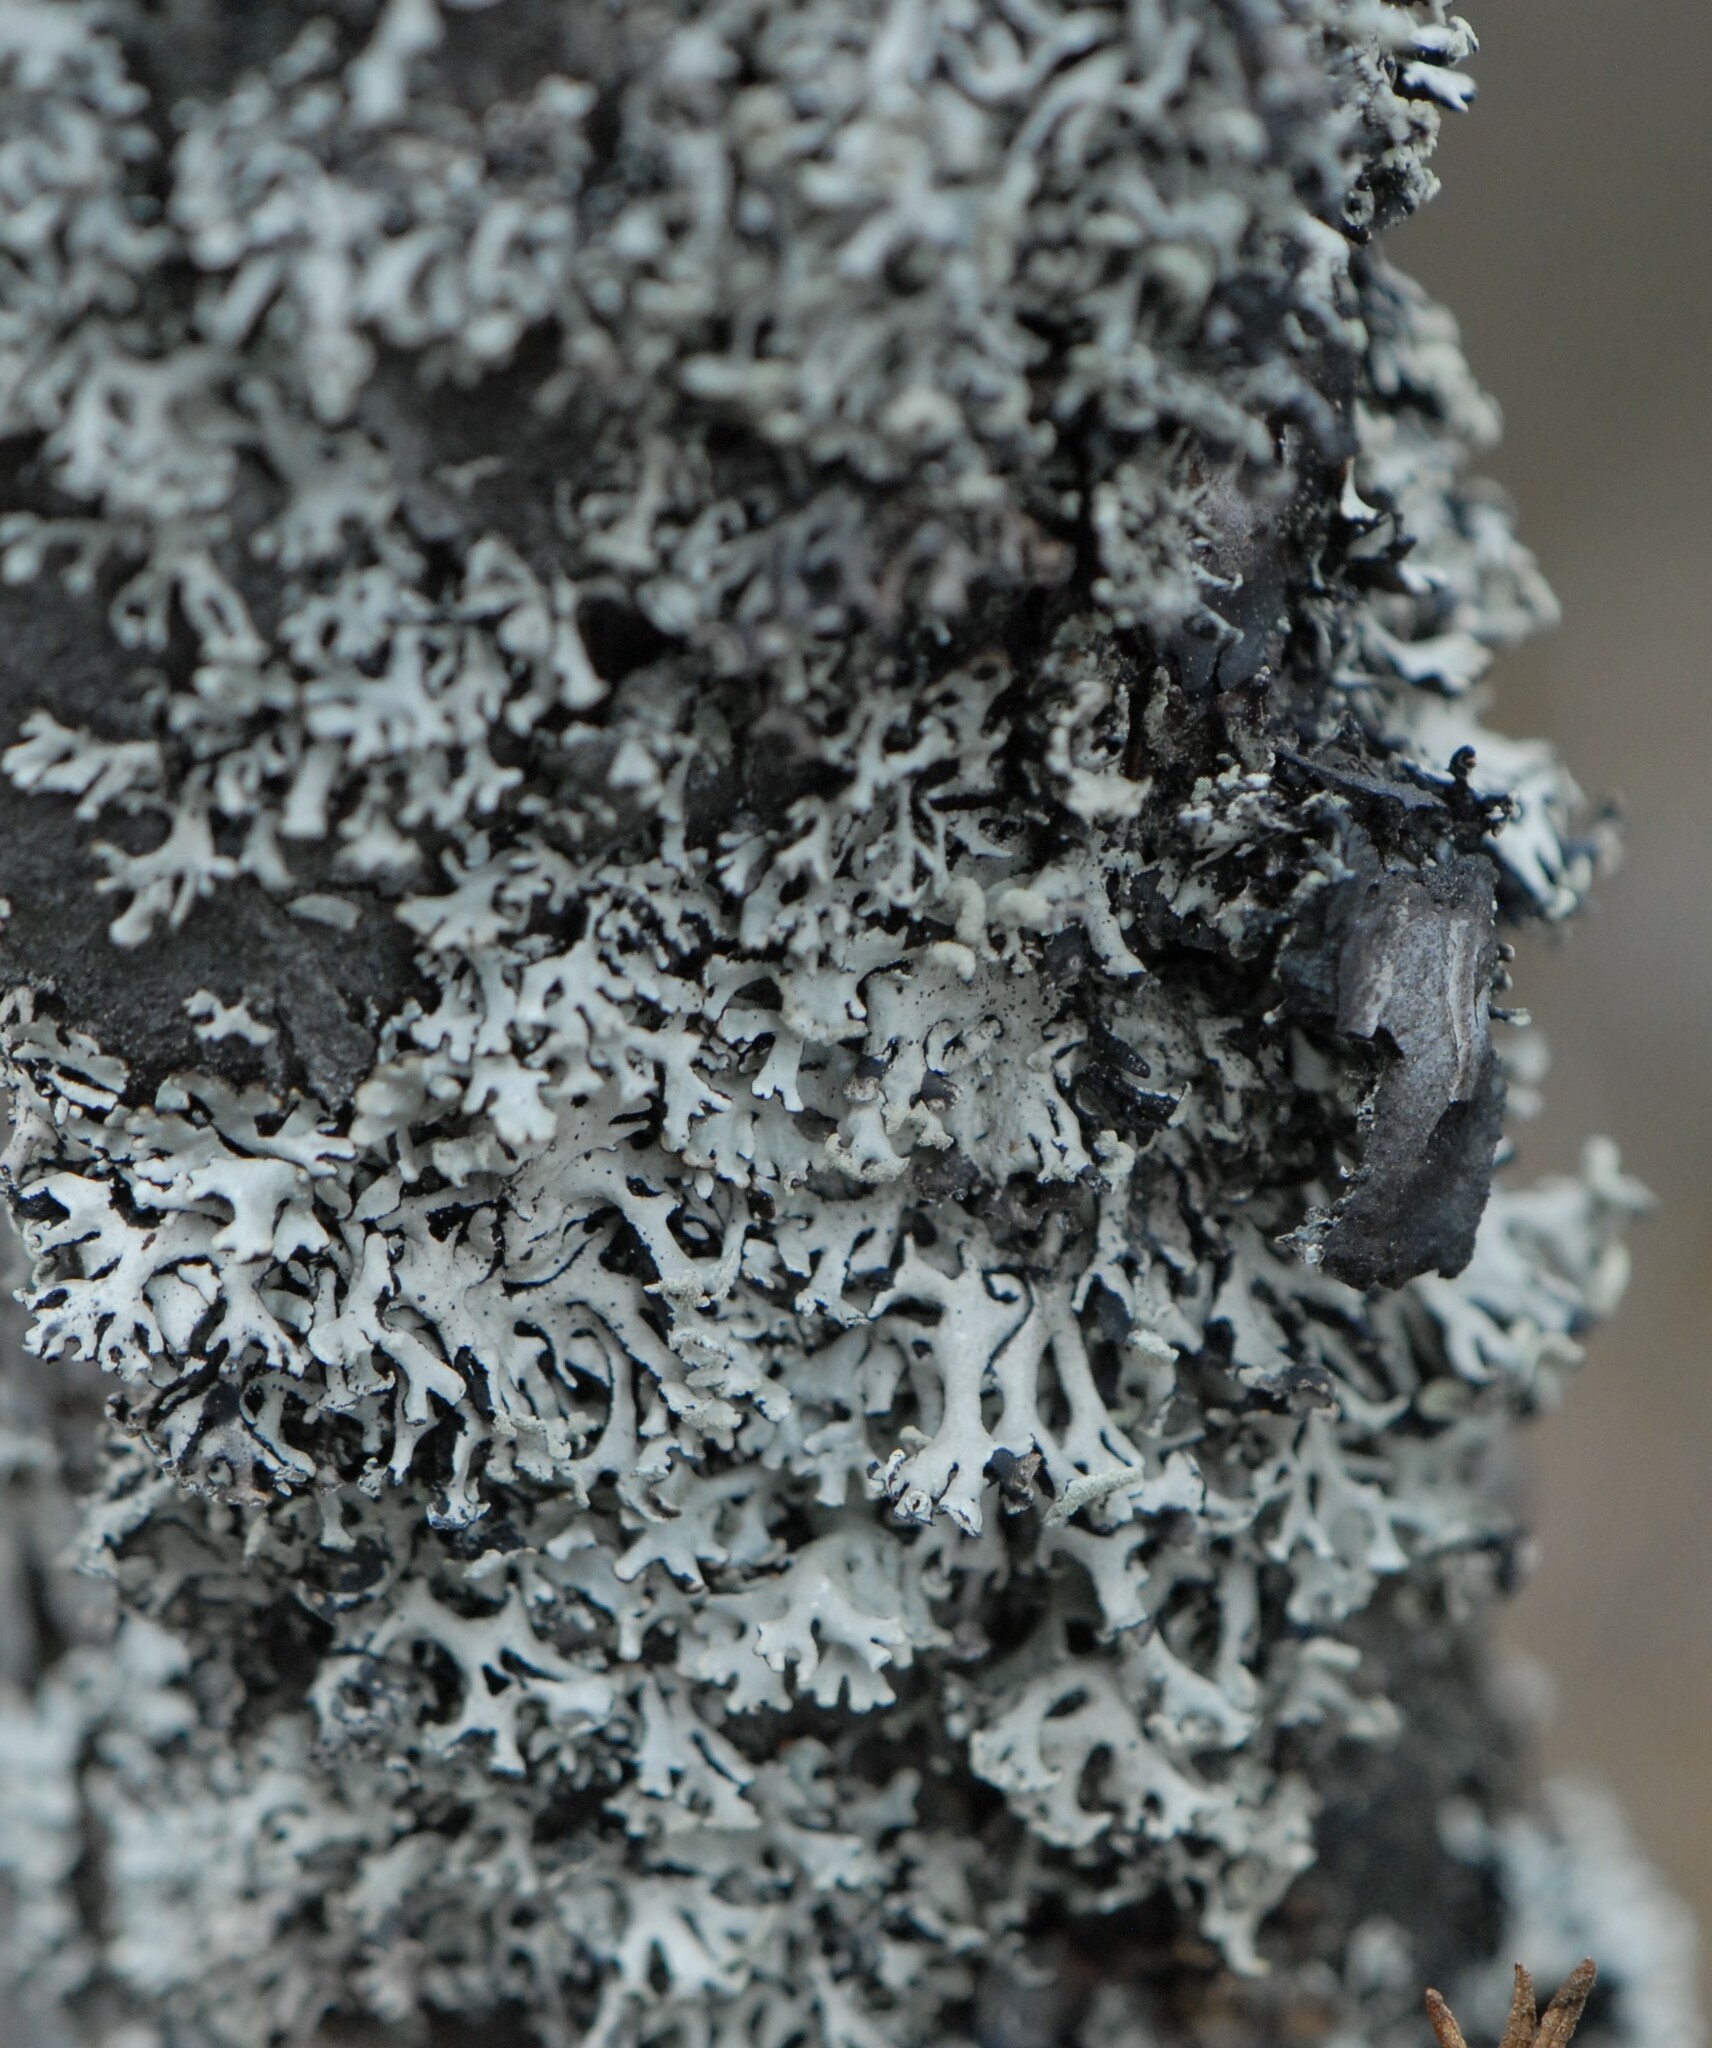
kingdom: Fungi
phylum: Ascomycota
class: Lecanoromycetes
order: Lecanorales
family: Parmeliaceae
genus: Hypogymnia
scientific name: Hypogymnia physodes
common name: Dark crottle
